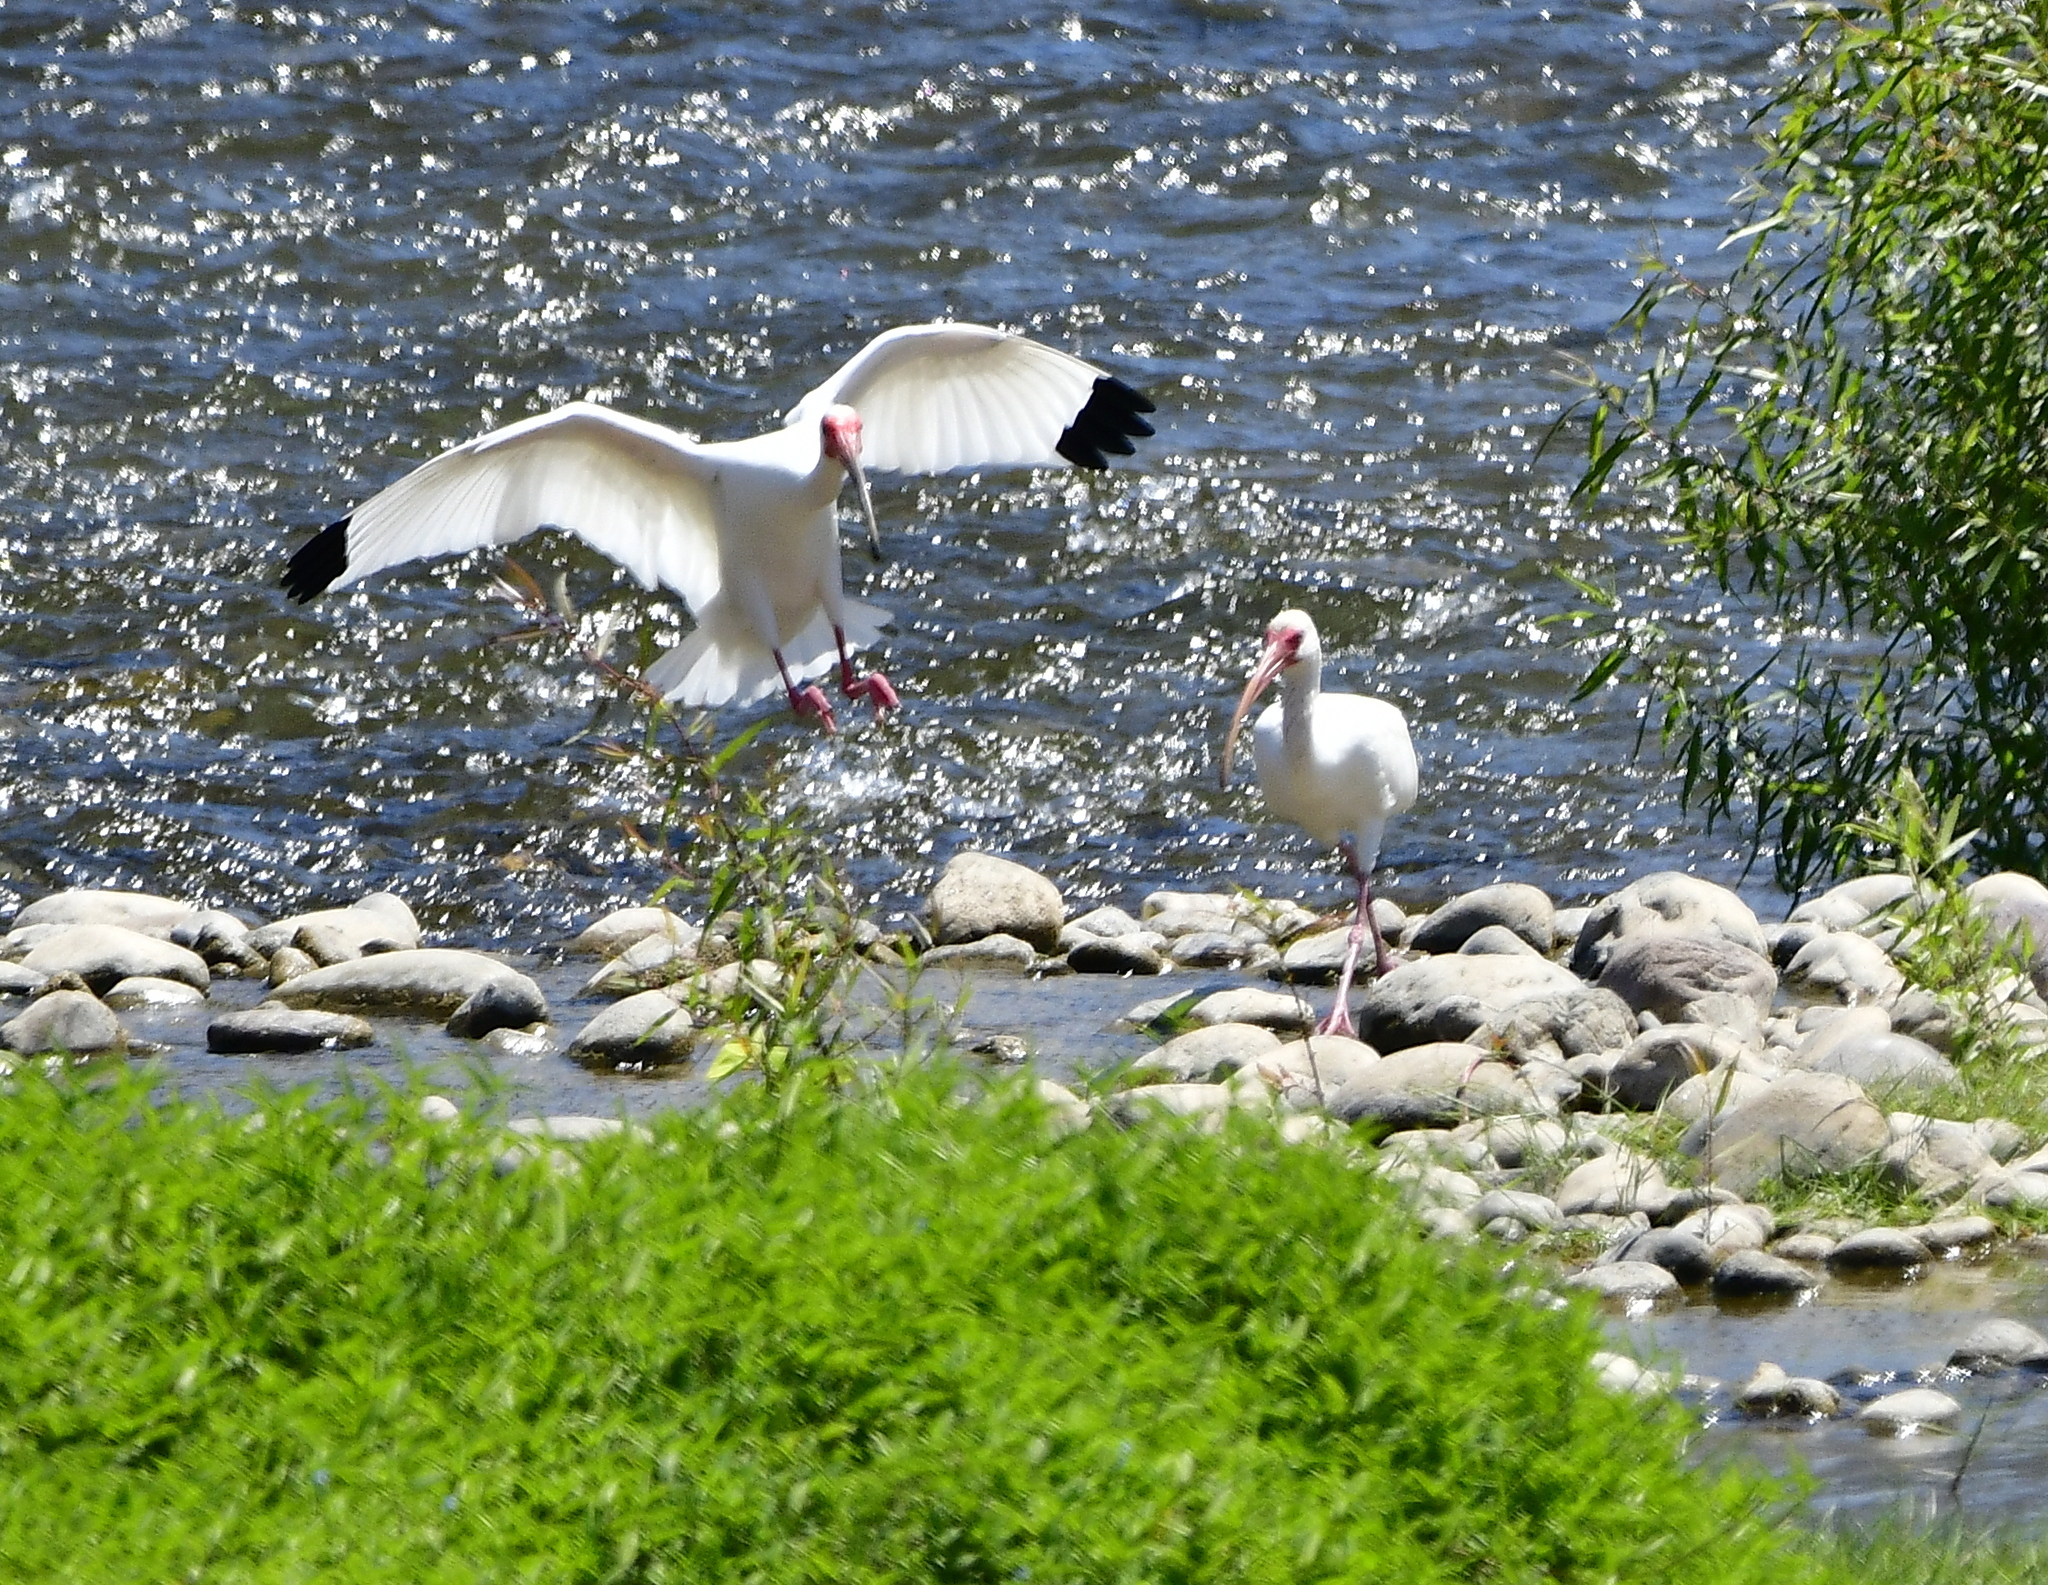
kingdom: Animalia
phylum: Chordata
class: Aves
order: Pelecaniformes
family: Threskiornithidae
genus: Eudocimus
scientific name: Eudocimus albus
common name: White ibis
